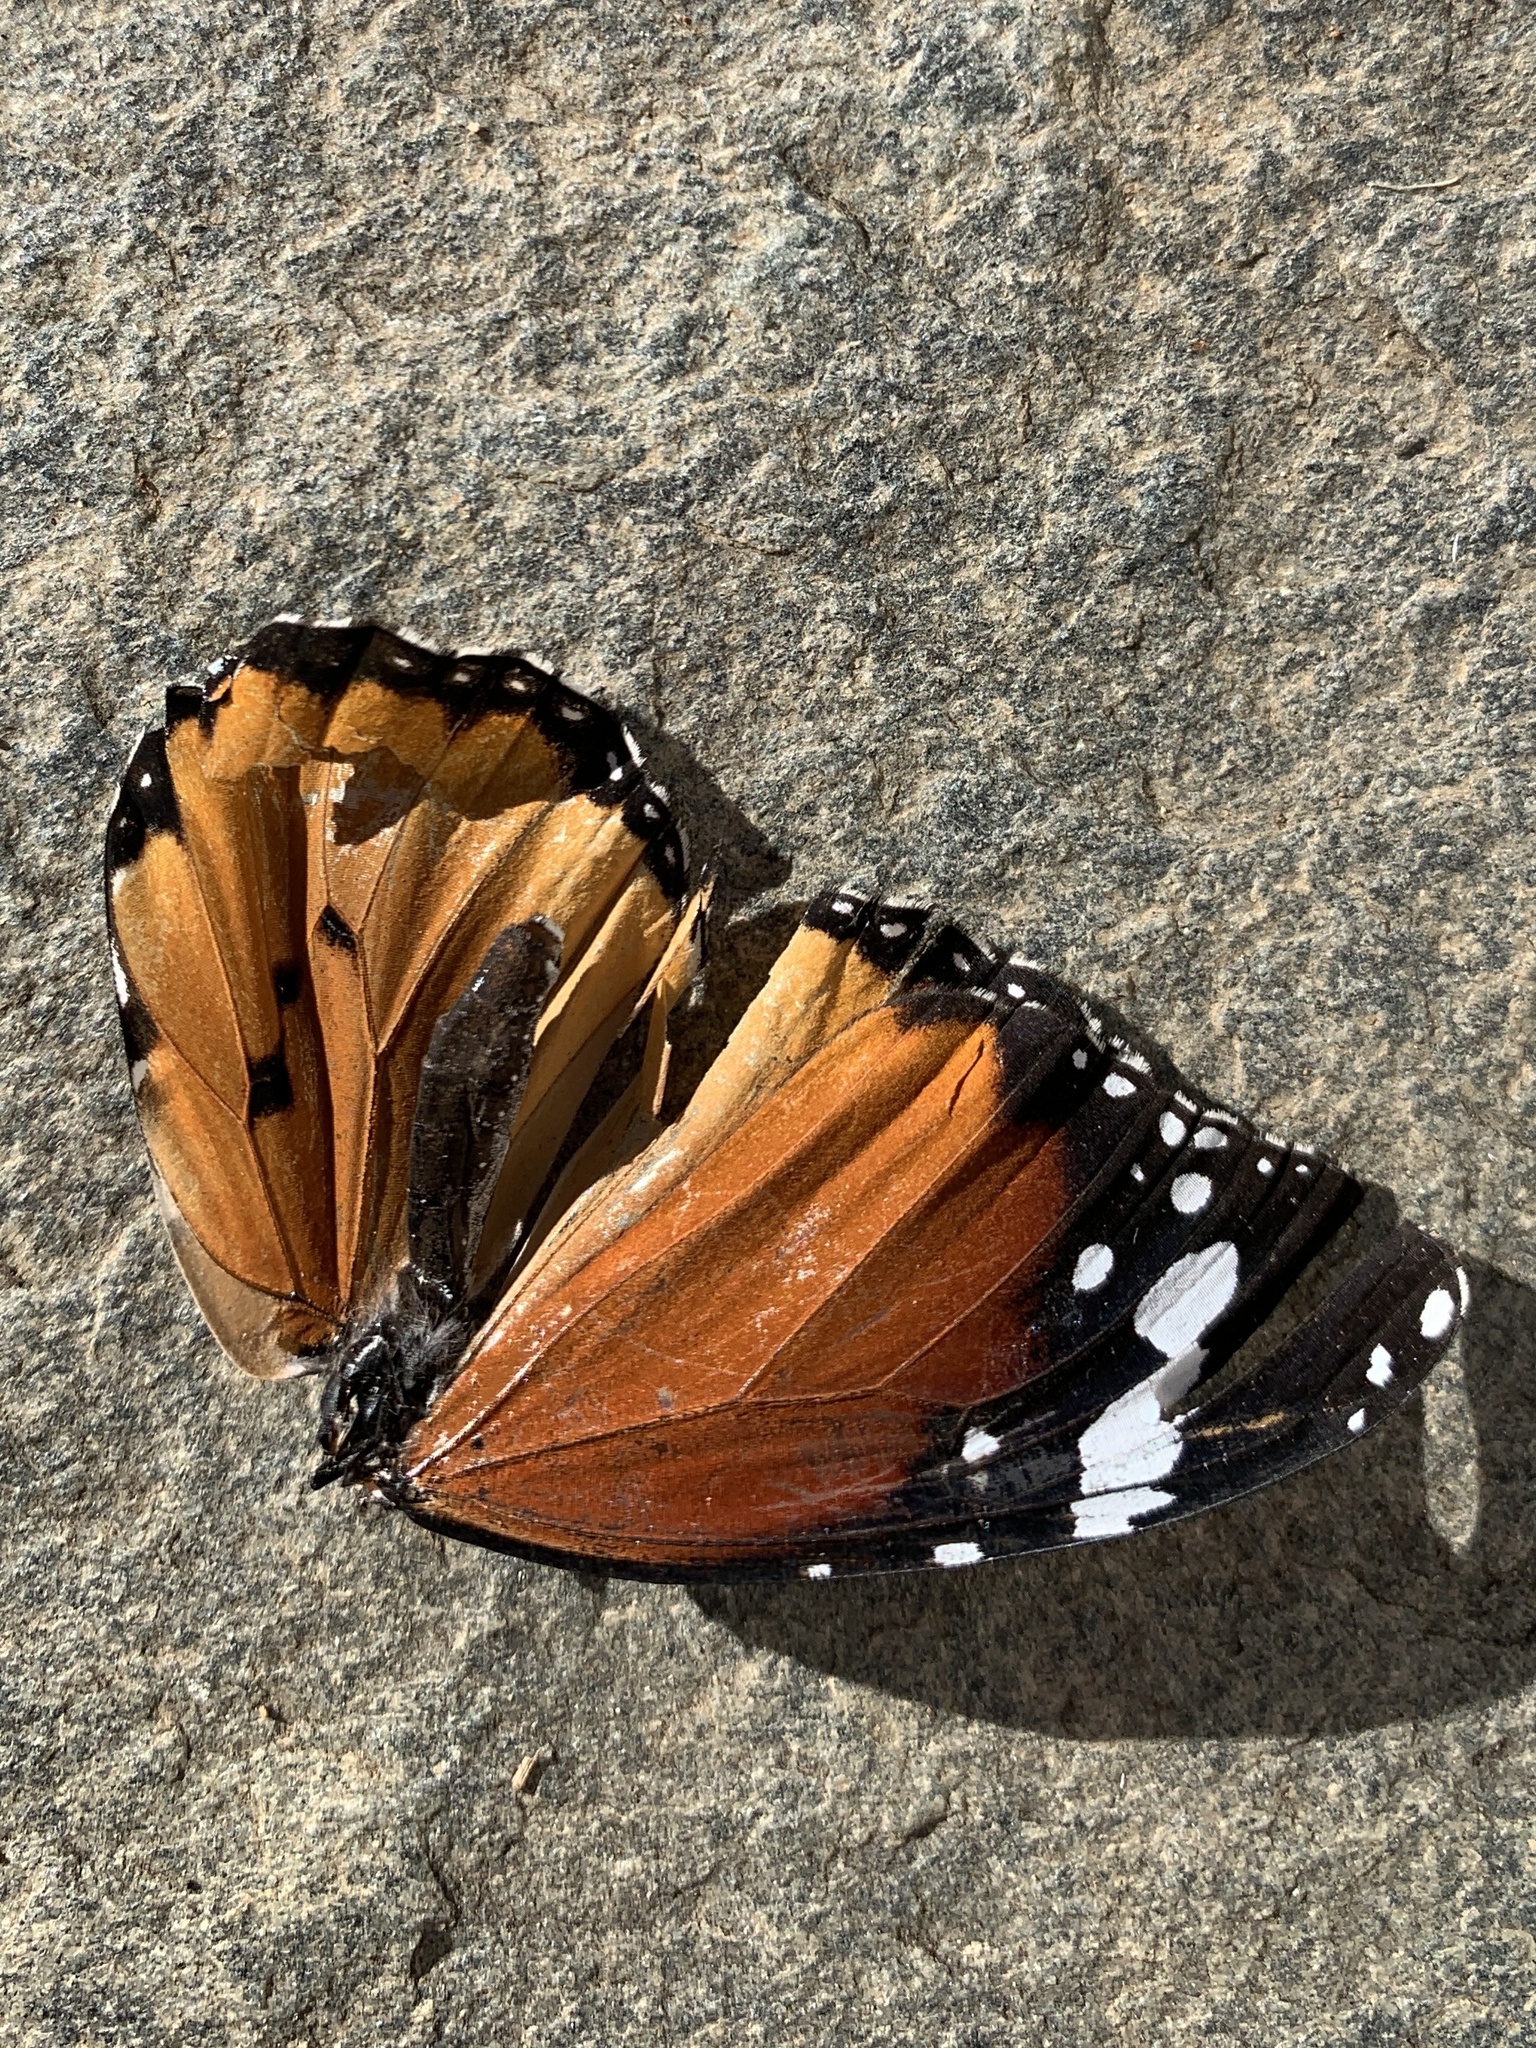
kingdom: Animalia
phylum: Arthropoda
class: Insecta
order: Lepidoptera
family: Nymphalidae
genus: Danaus
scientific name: Danaus chrysippus
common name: Plain tiger
